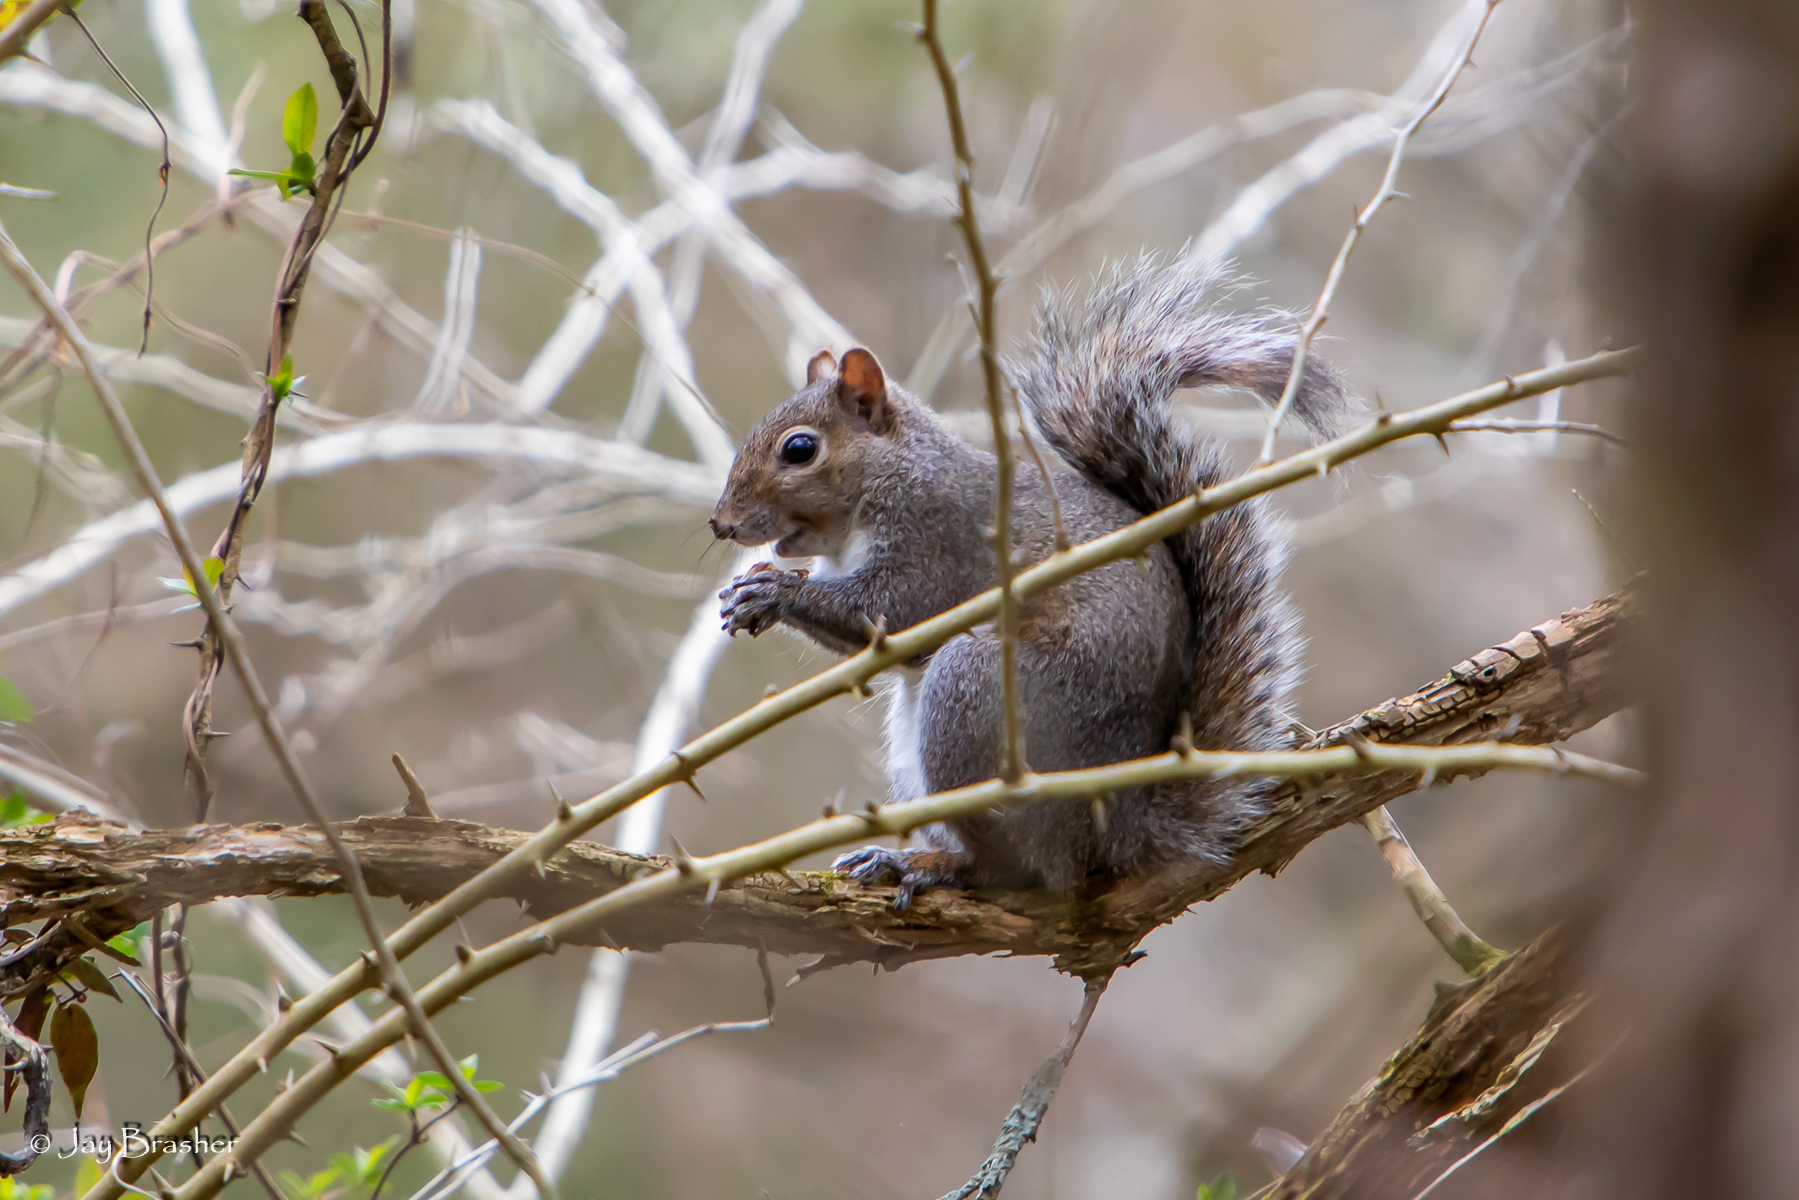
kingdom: Animalia
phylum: Chordata
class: Mammalia
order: Rodentia
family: Sciuridae
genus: Sciurus
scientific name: Sciurus carolinensis
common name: Eastern gray squirrel
